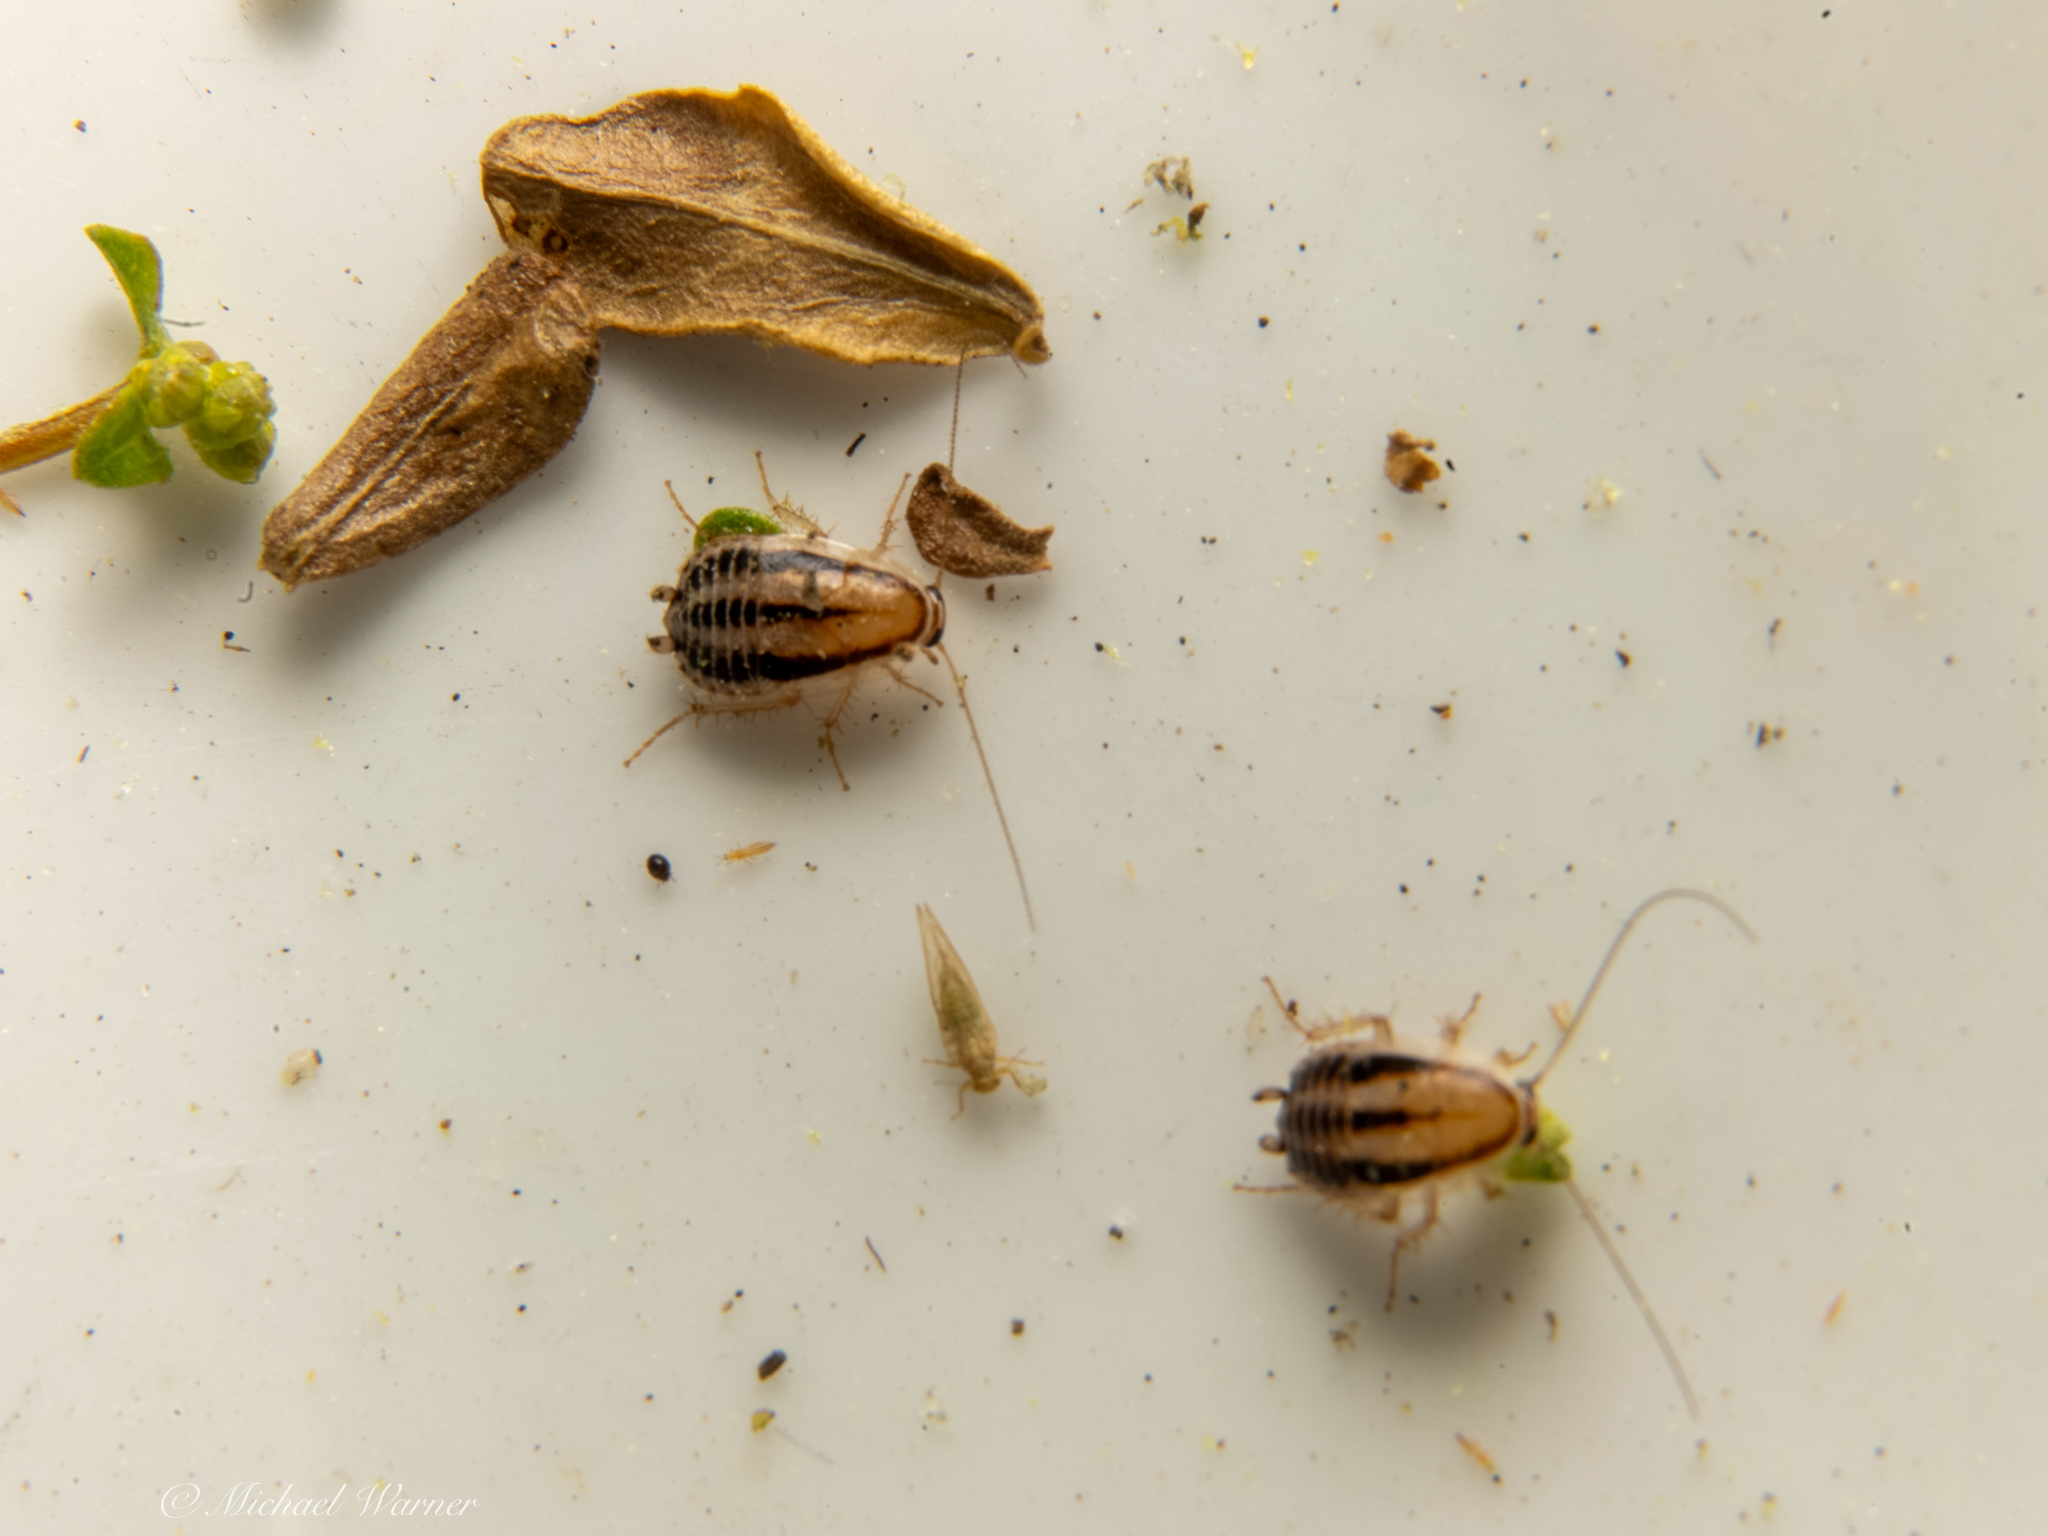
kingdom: Animalia
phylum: Arthropoda
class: Insecta
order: Blattodea
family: Ectobiidae
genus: Luridiblatta
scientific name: Luridiblatta trivittata
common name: Three-lined cockroach
